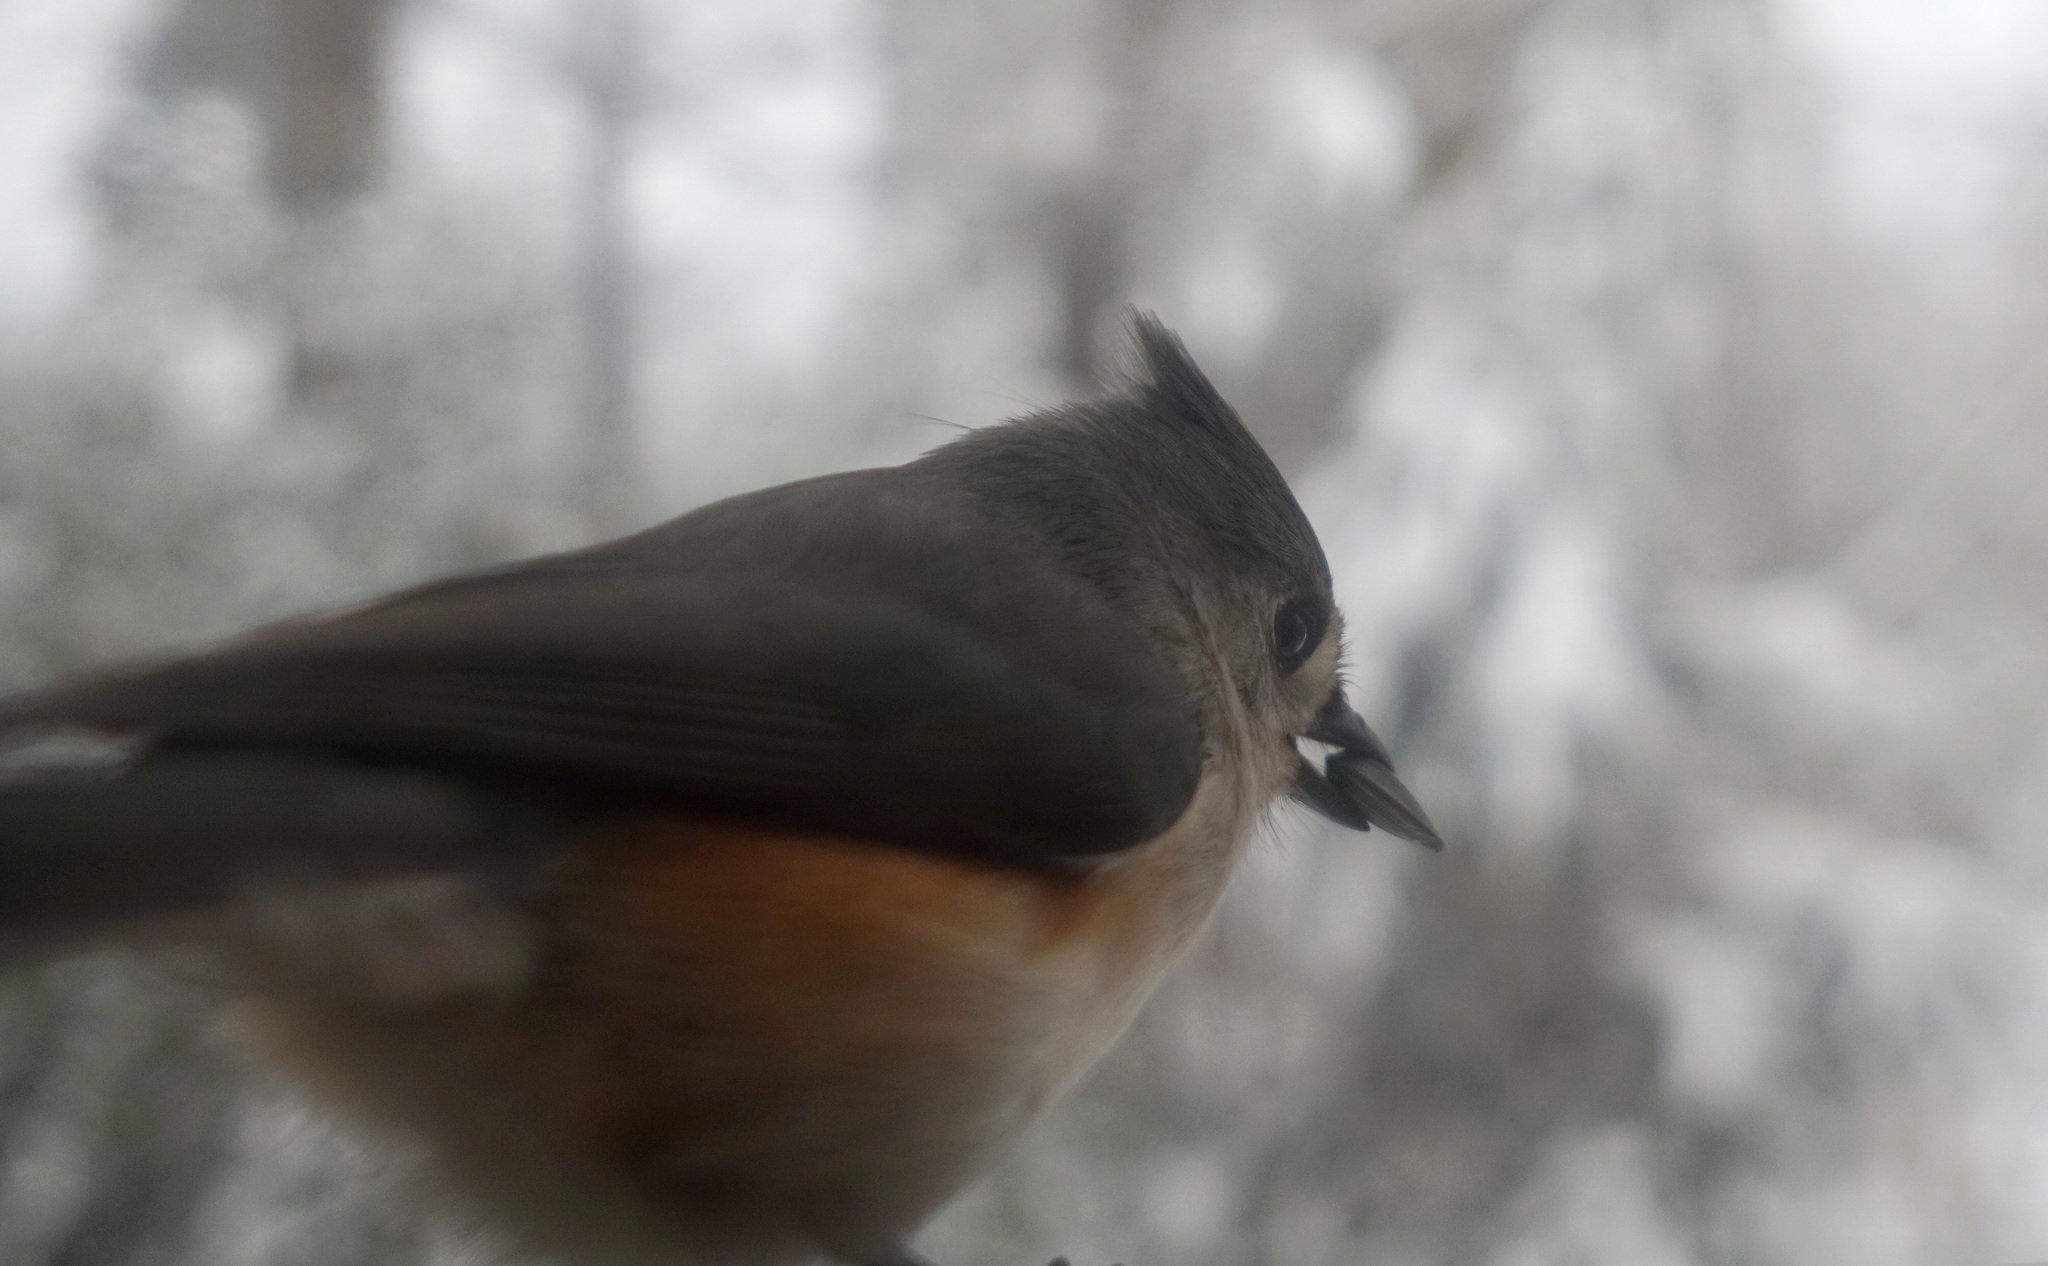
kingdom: Animalia
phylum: Chordata
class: Aves
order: Passeriformes
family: Paridae
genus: Baeolophus
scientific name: Baeolophus bicolor
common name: Tufted titmouse
